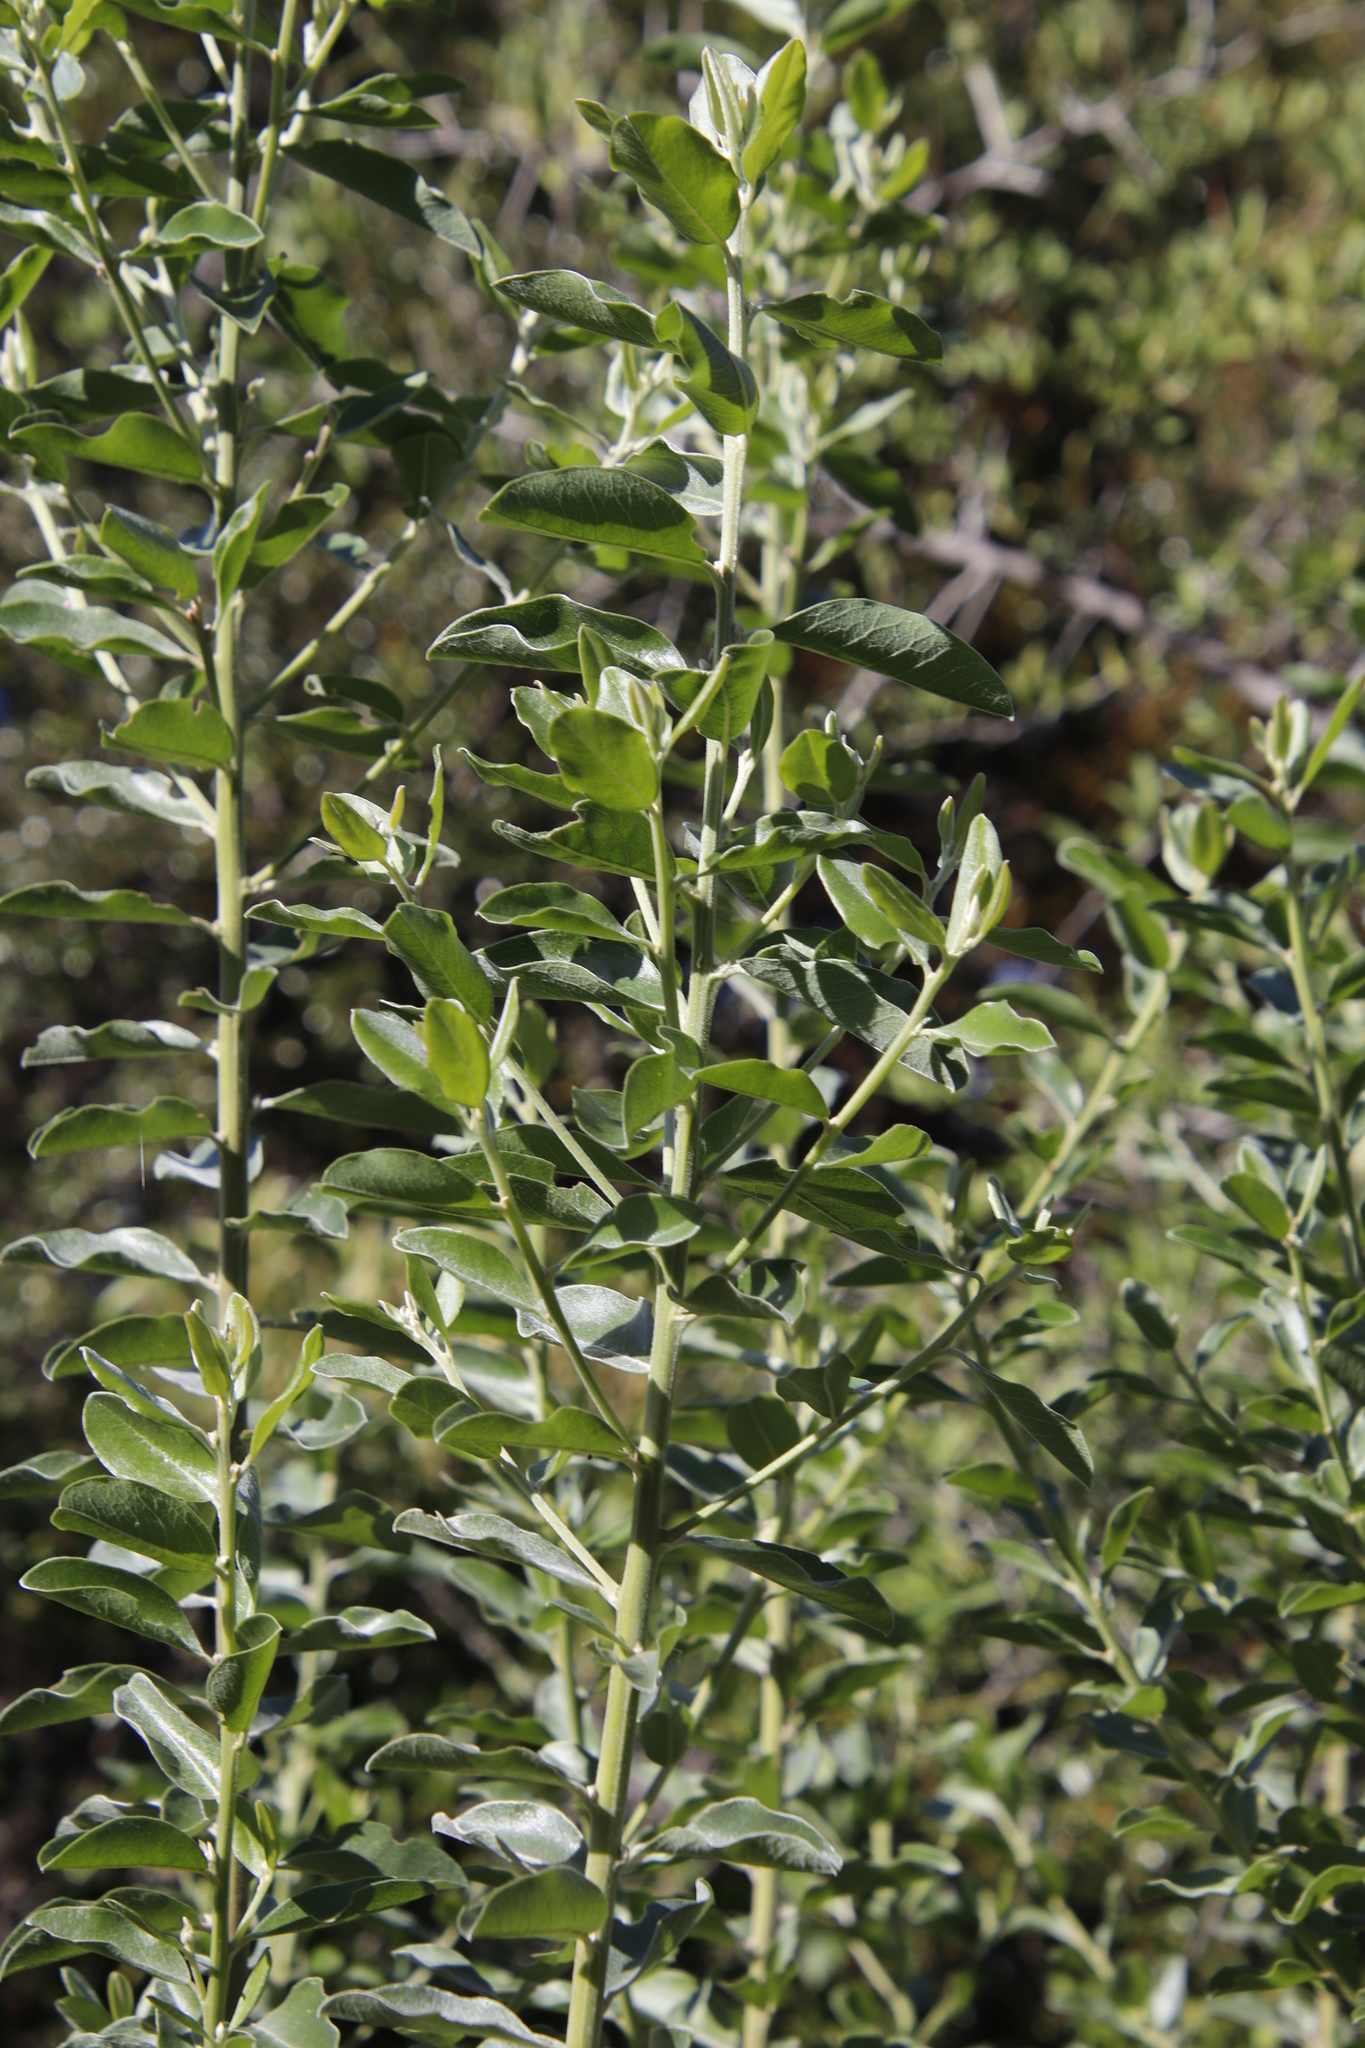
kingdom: Plantae
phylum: Tracheophyta
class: Magnoliopsida
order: Fabales
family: Fabaceae
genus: Podalyria
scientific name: Podalyria calyptrata
